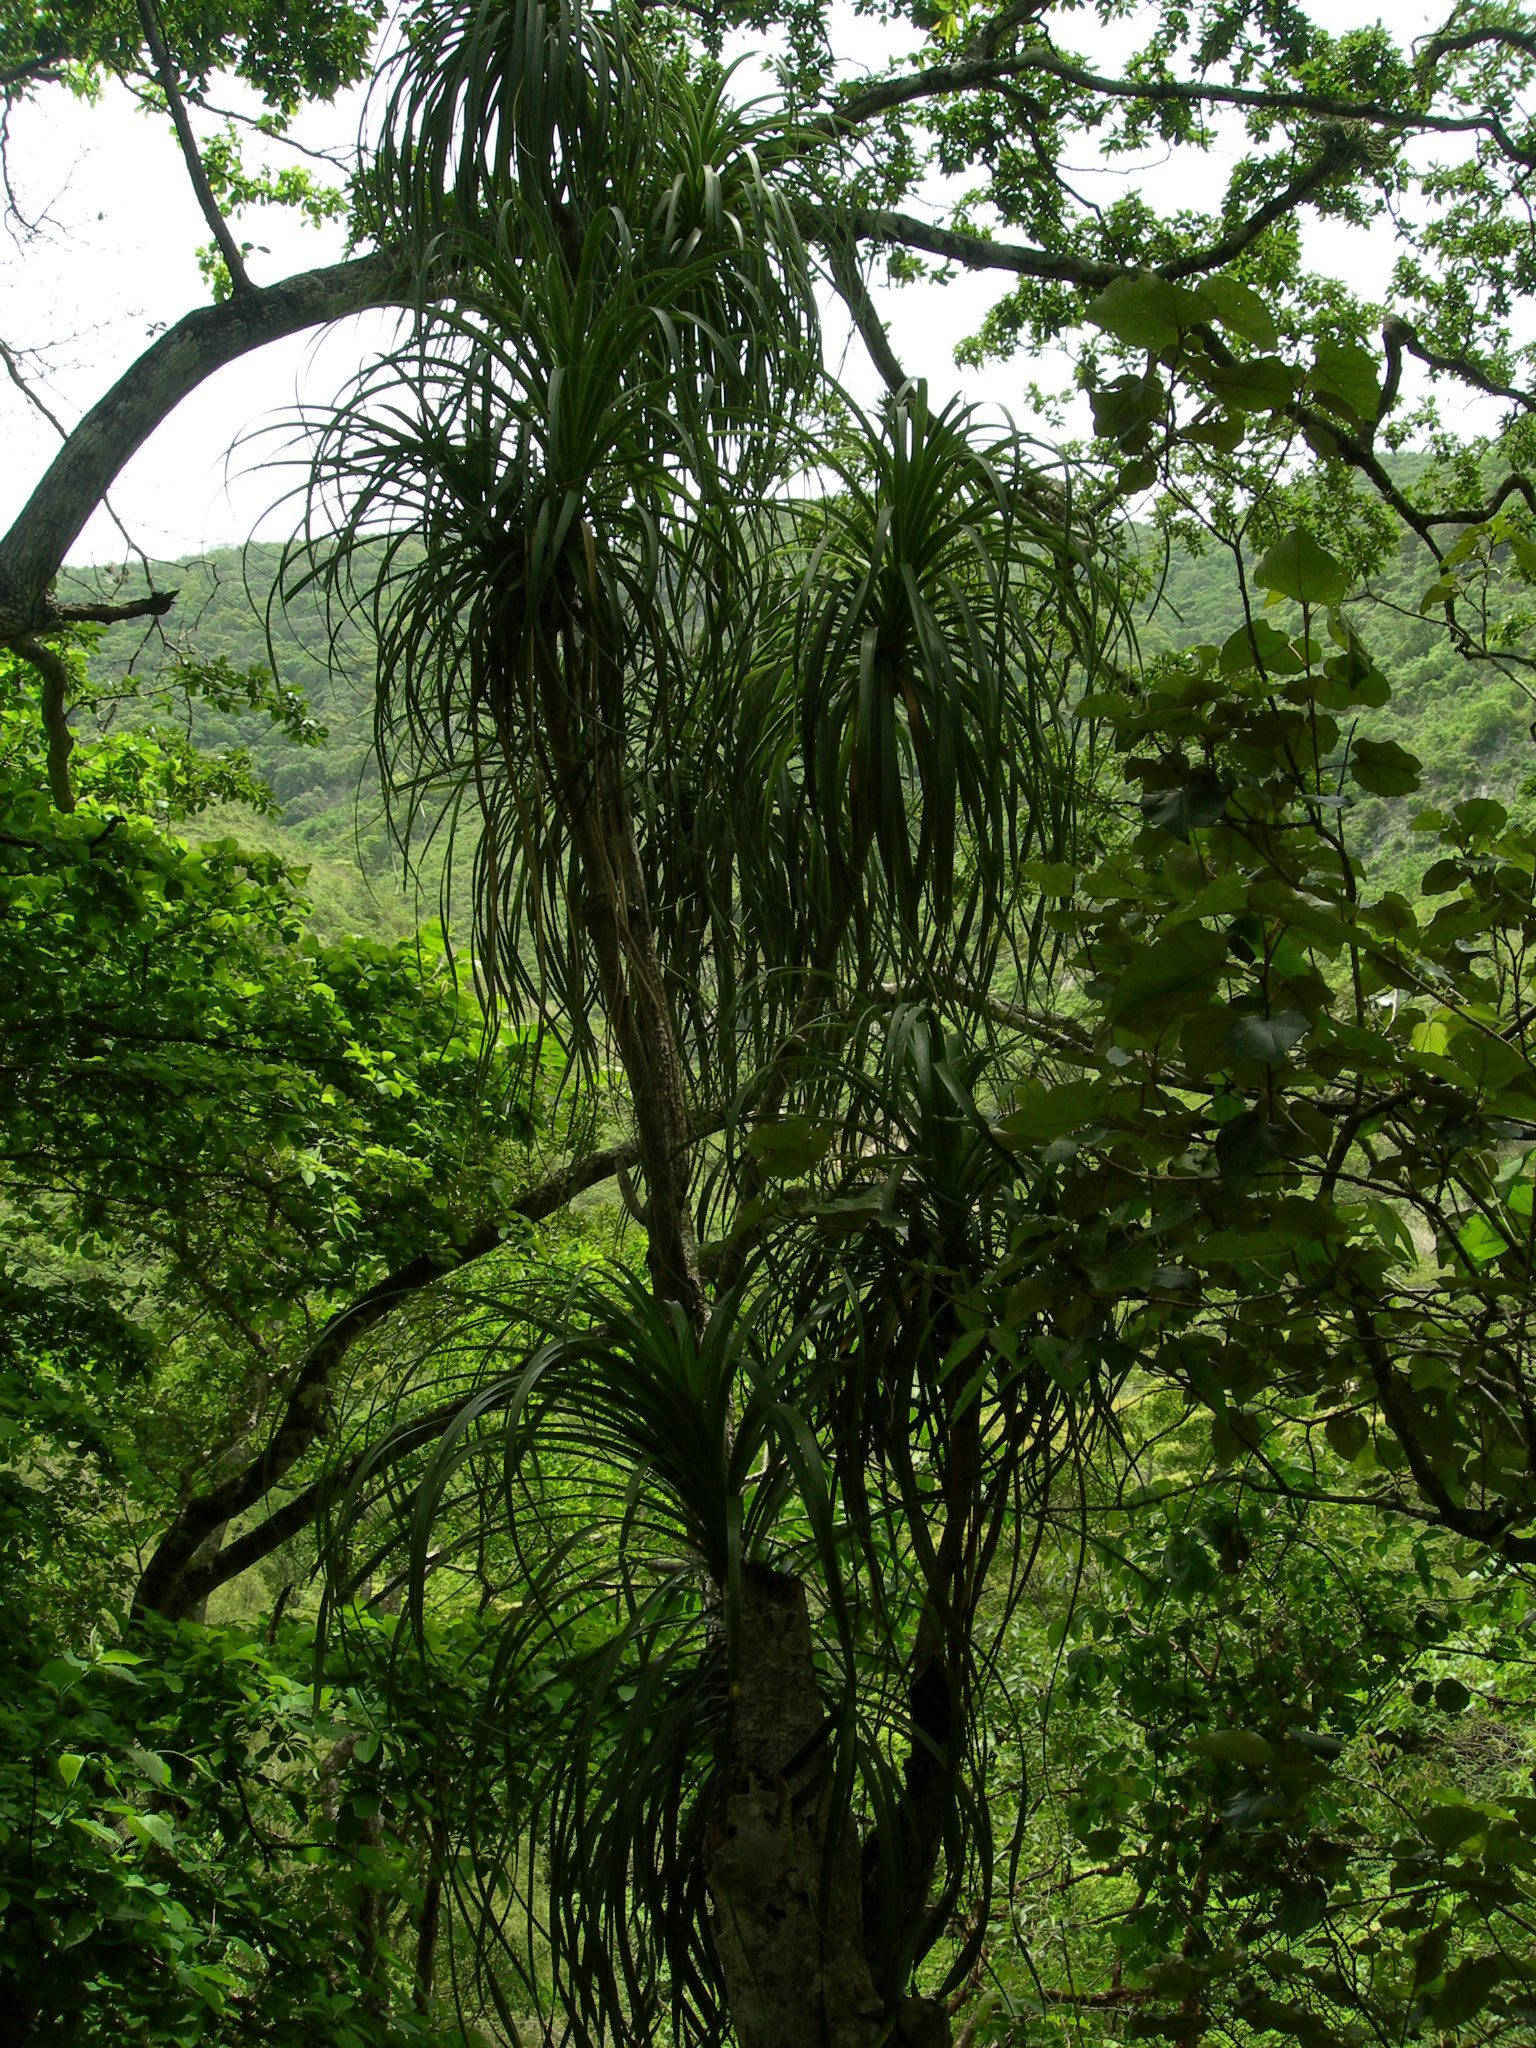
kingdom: Plantae
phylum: Tracheophyta
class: Liliopsida
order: Asparagales
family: Asparagaceae
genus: Beaucarnea
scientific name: Beaucarnea goldmanii
